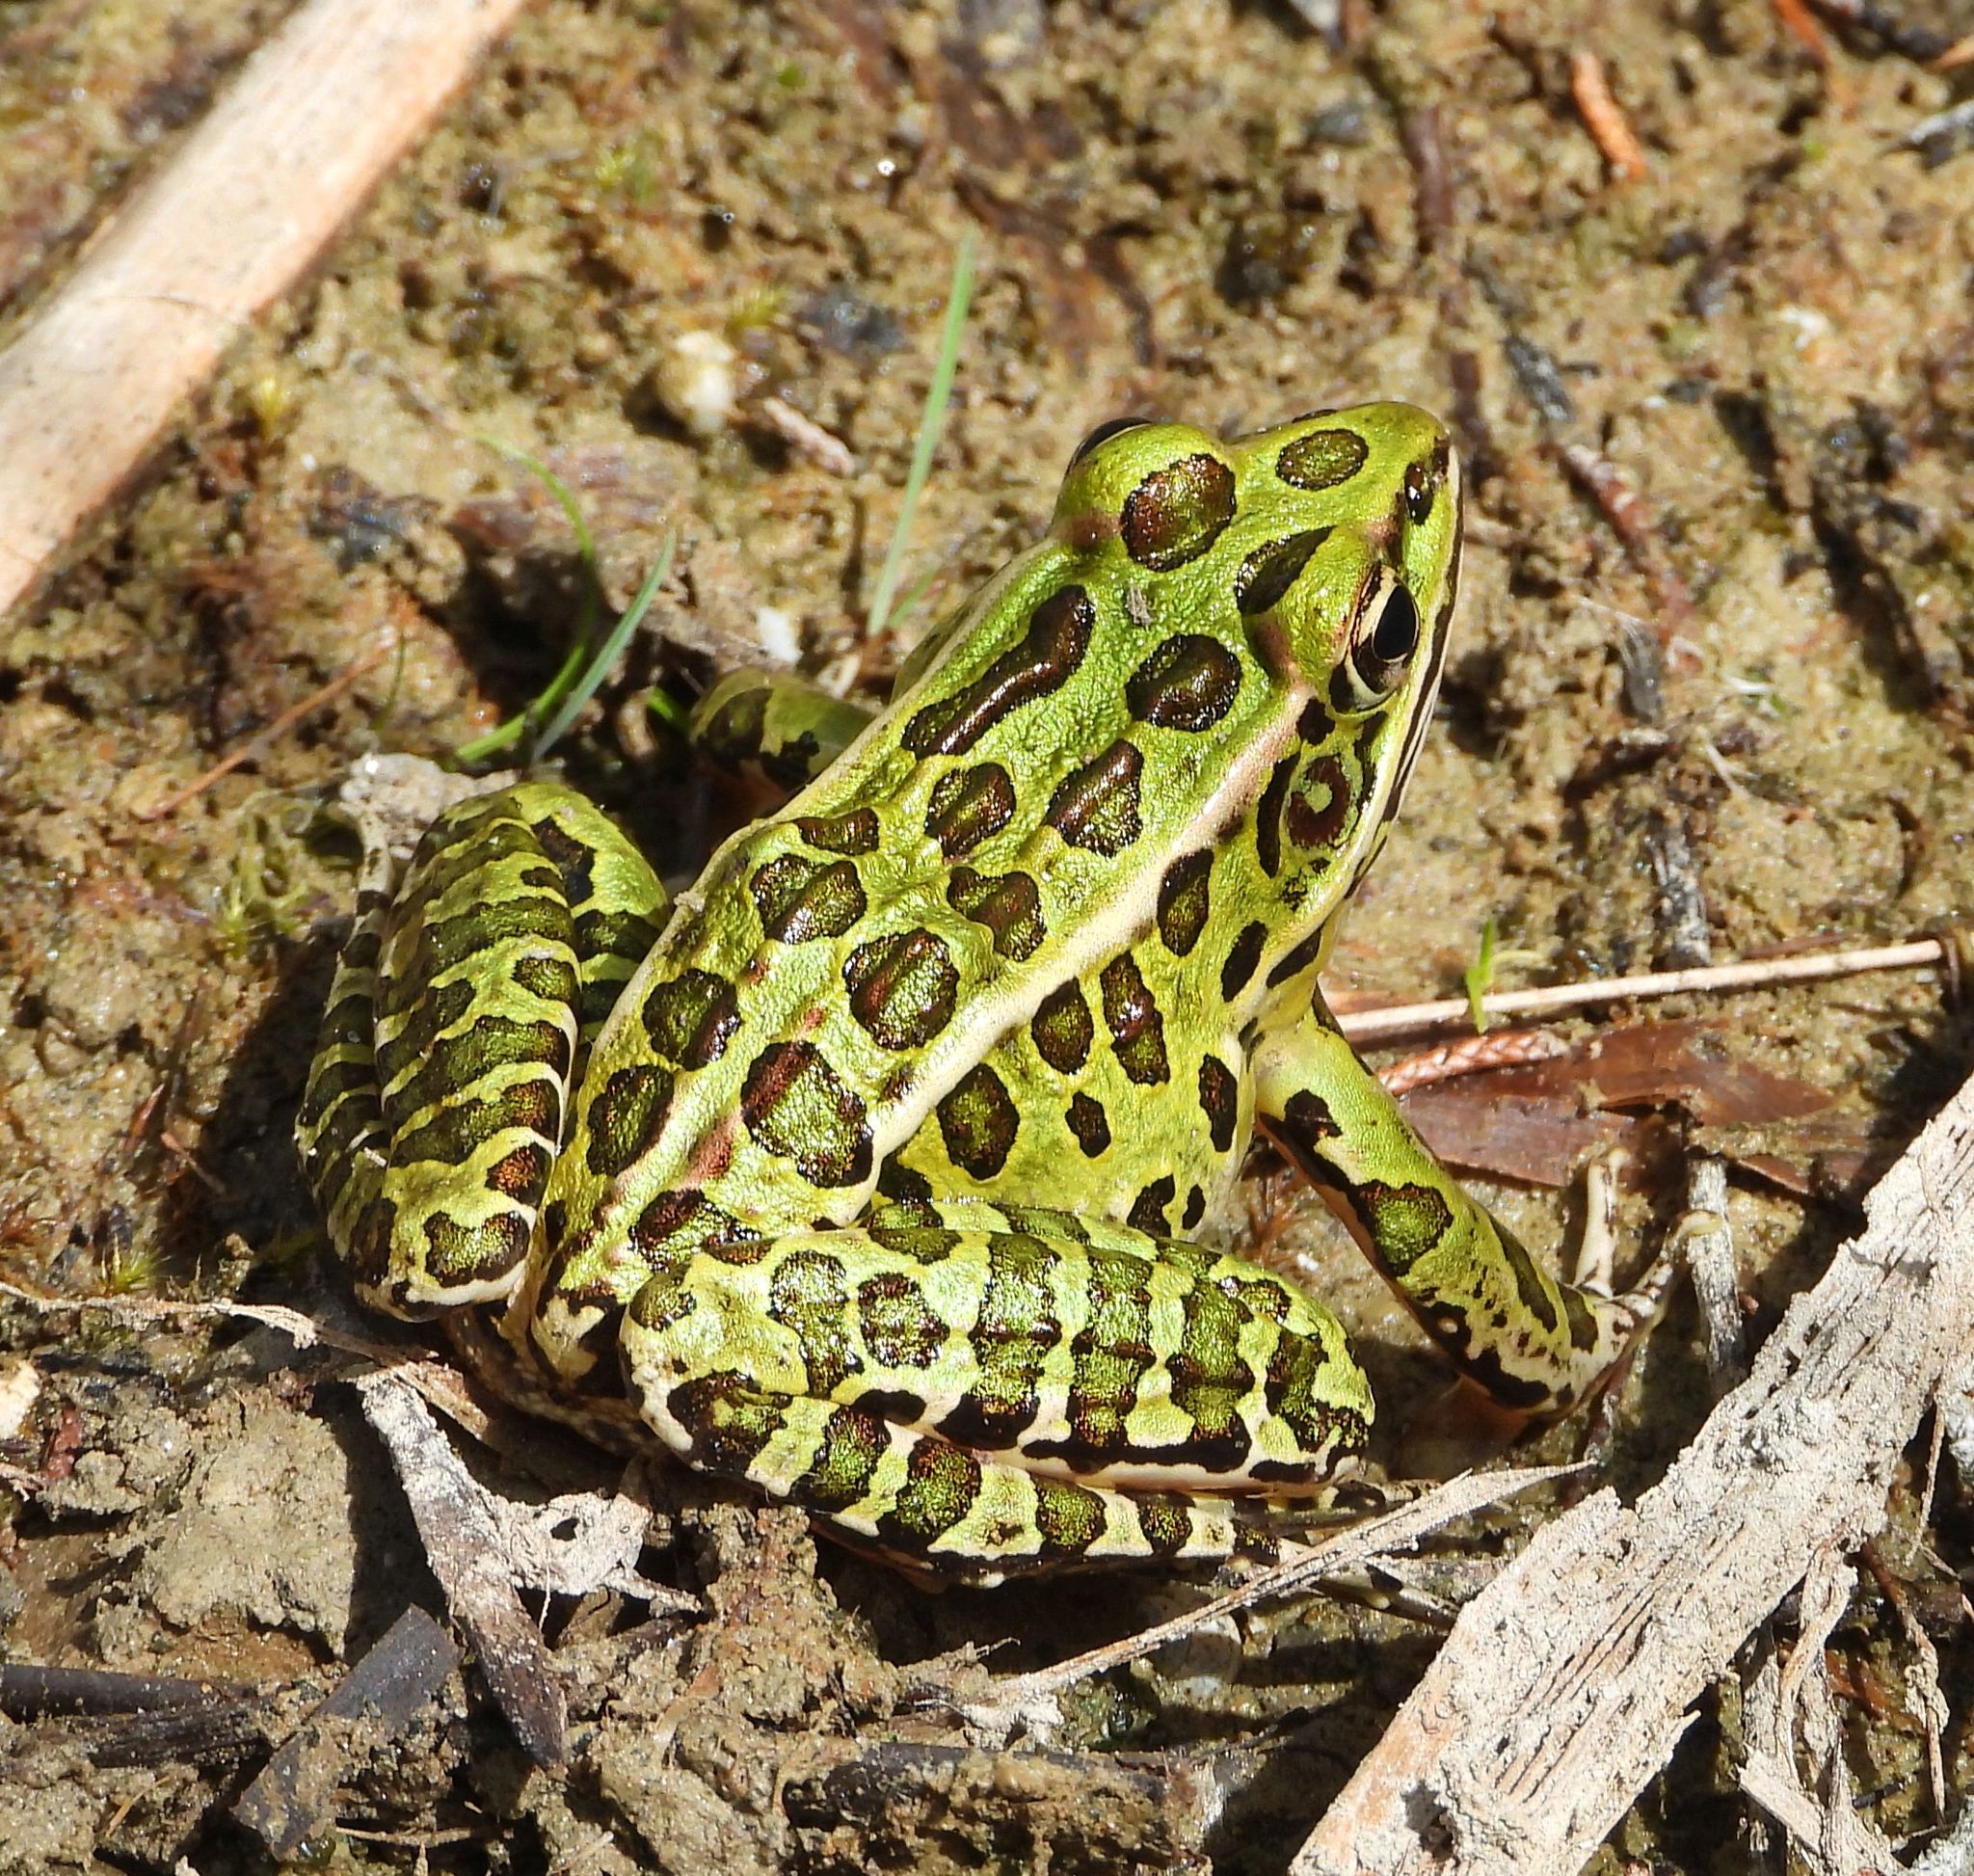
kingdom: Animalia
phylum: Chordata
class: Amphibia
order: Anura
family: Ranidae
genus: Lithobates
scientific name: Lithobates pipiens
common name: Northern leopard frog
